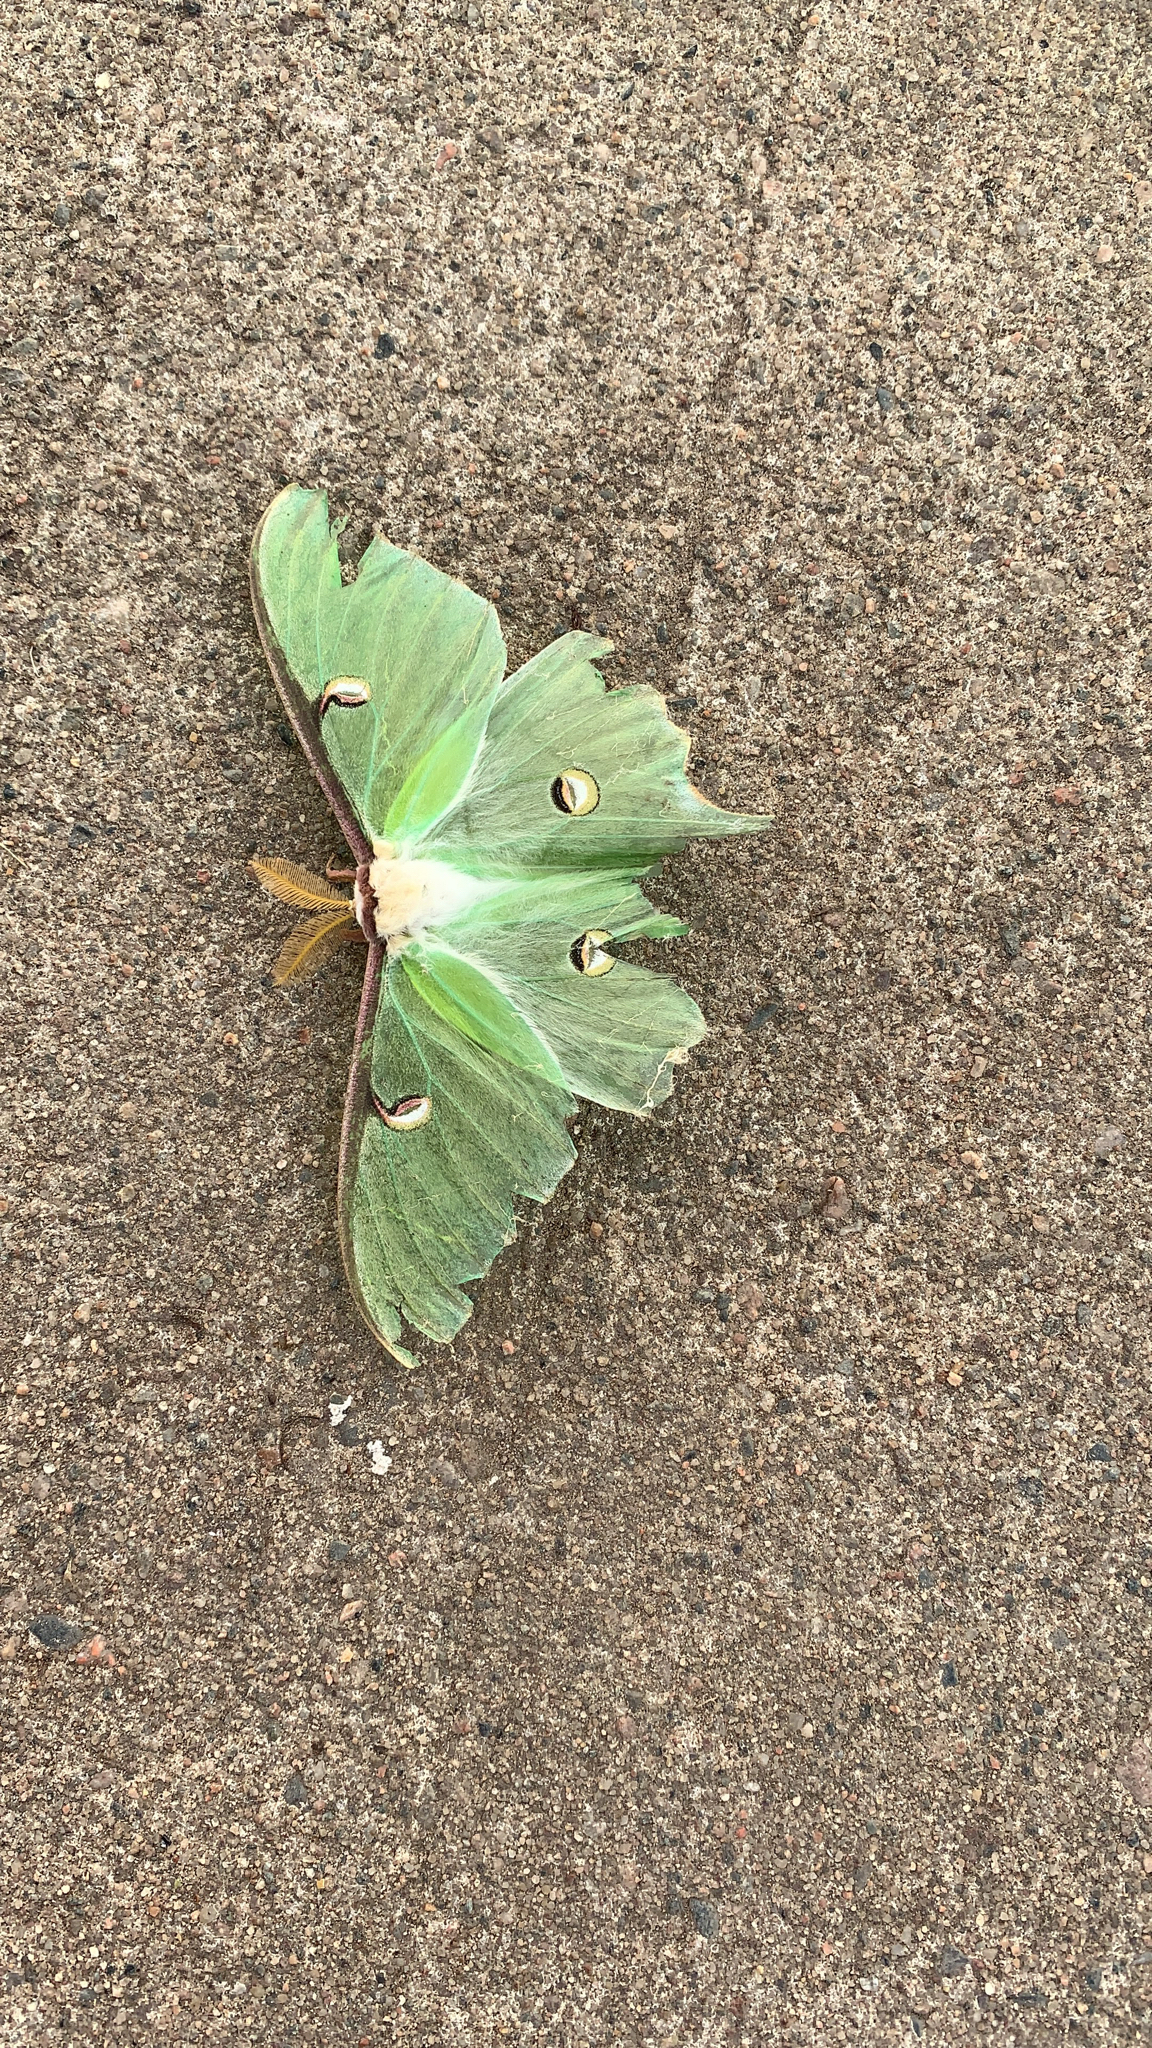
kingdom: Animalia
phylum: Arthropoda
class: Insecta
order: Lepidoptera
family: Saturniidae
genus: Actias
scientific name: Actias luna
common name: Luna moth
